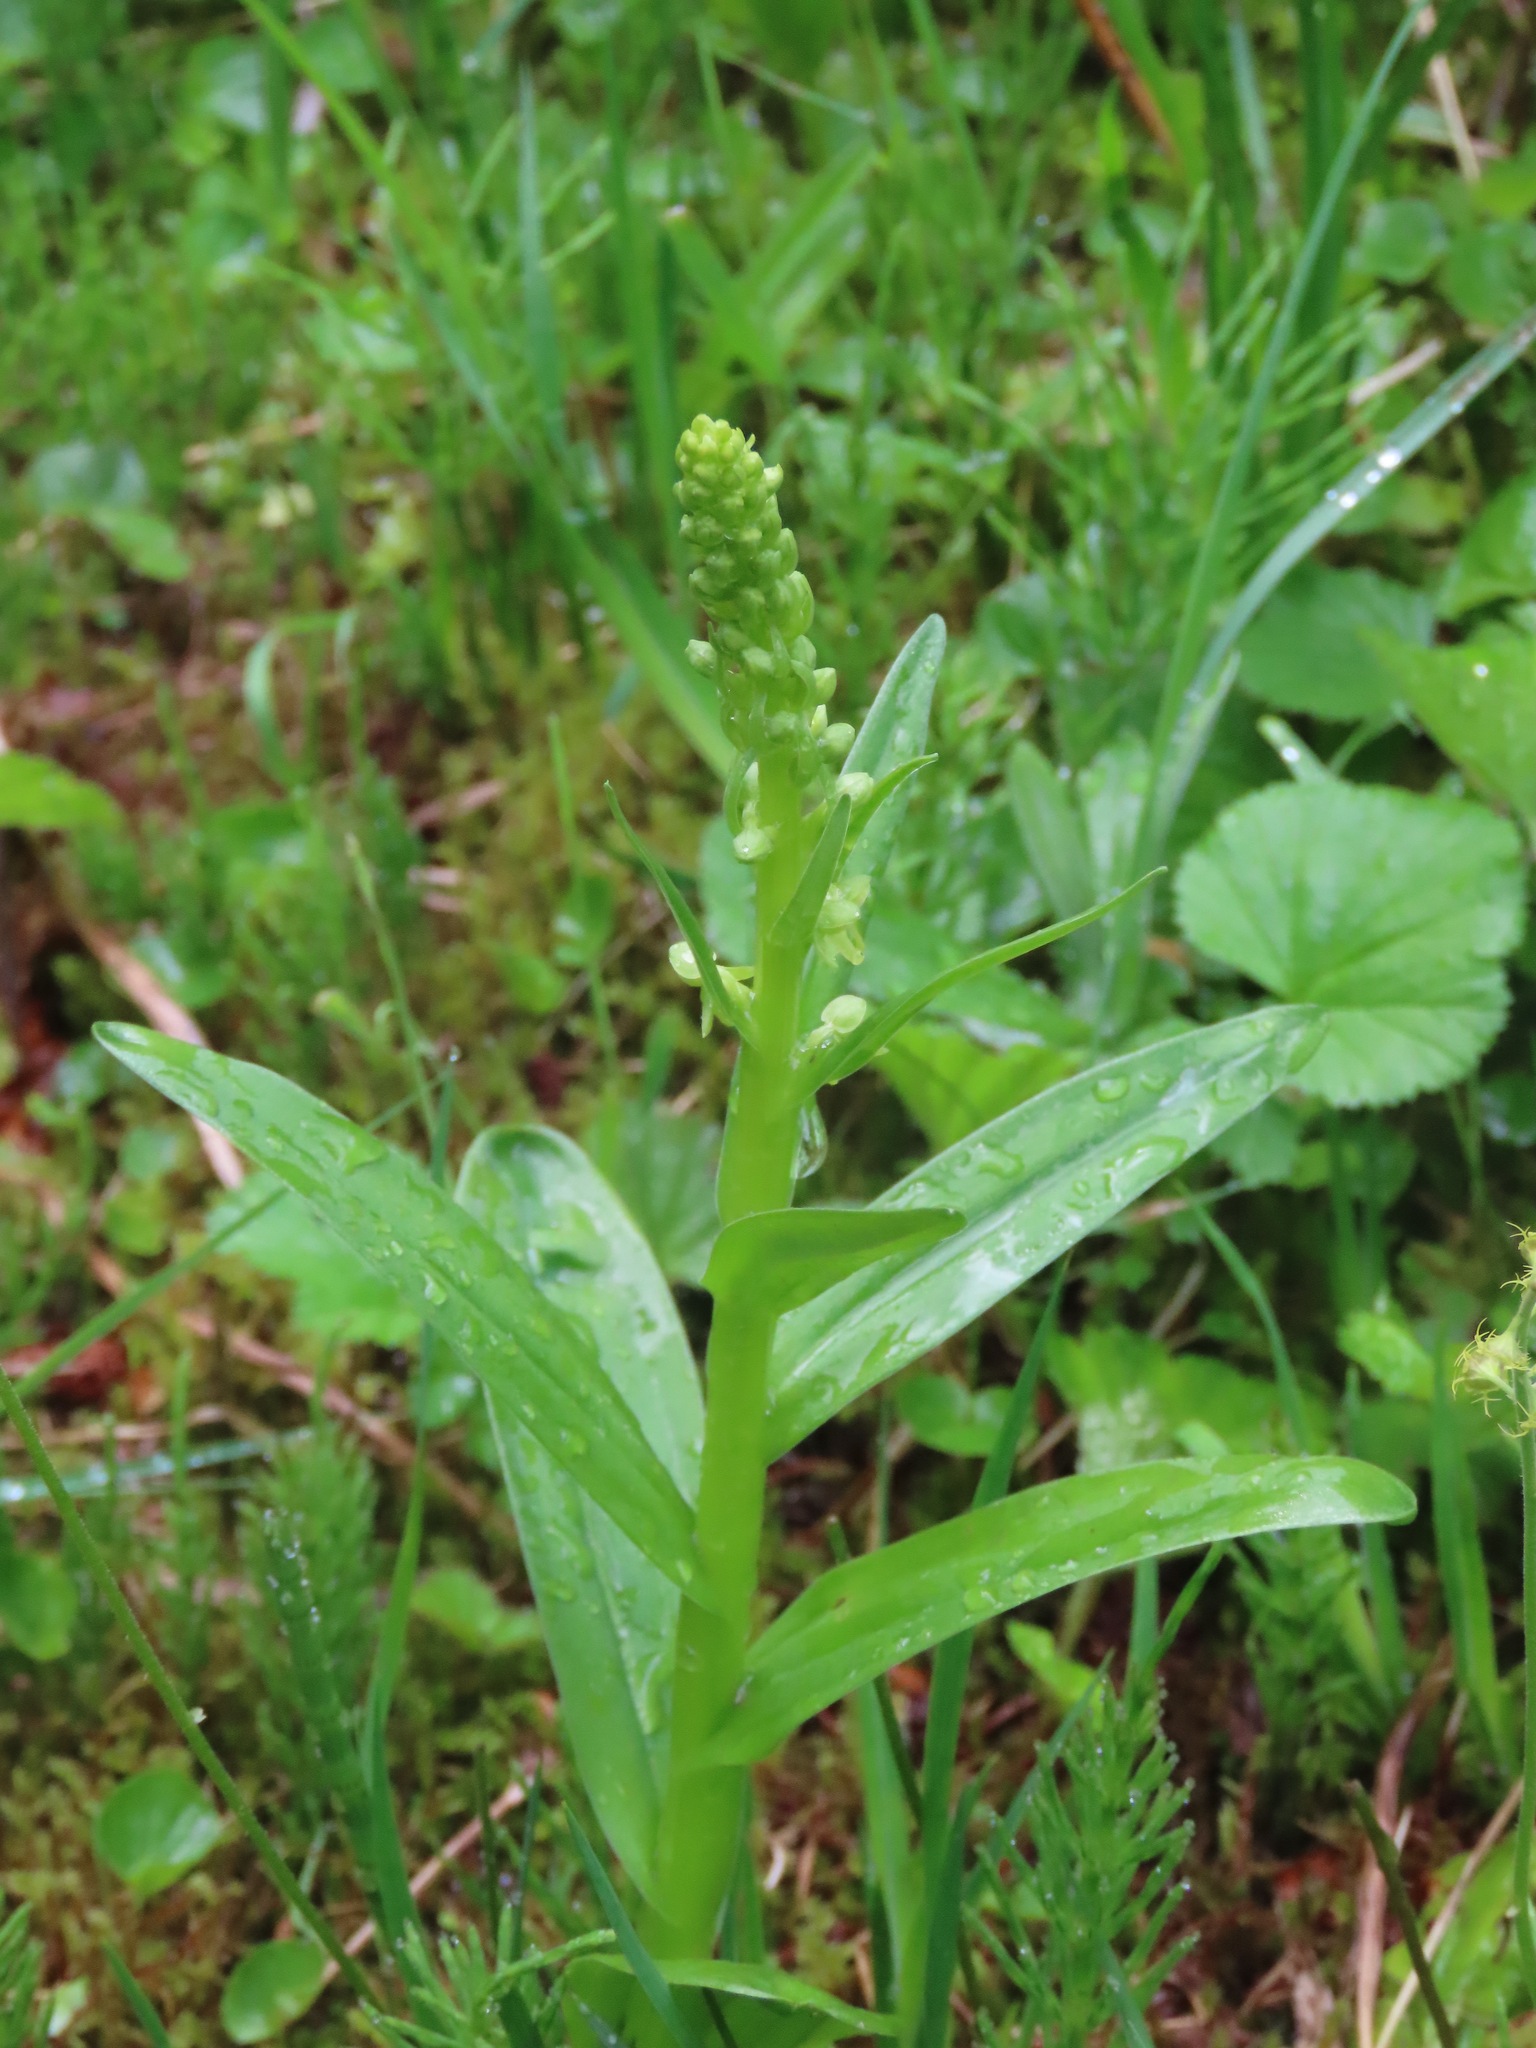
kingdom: Plantae
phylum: Tracheophyta
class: Liliopsida
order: Asparagales
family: Orchidaceae
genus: Platanthera
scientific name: Platanthera stricta
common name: Slender bog orchid
